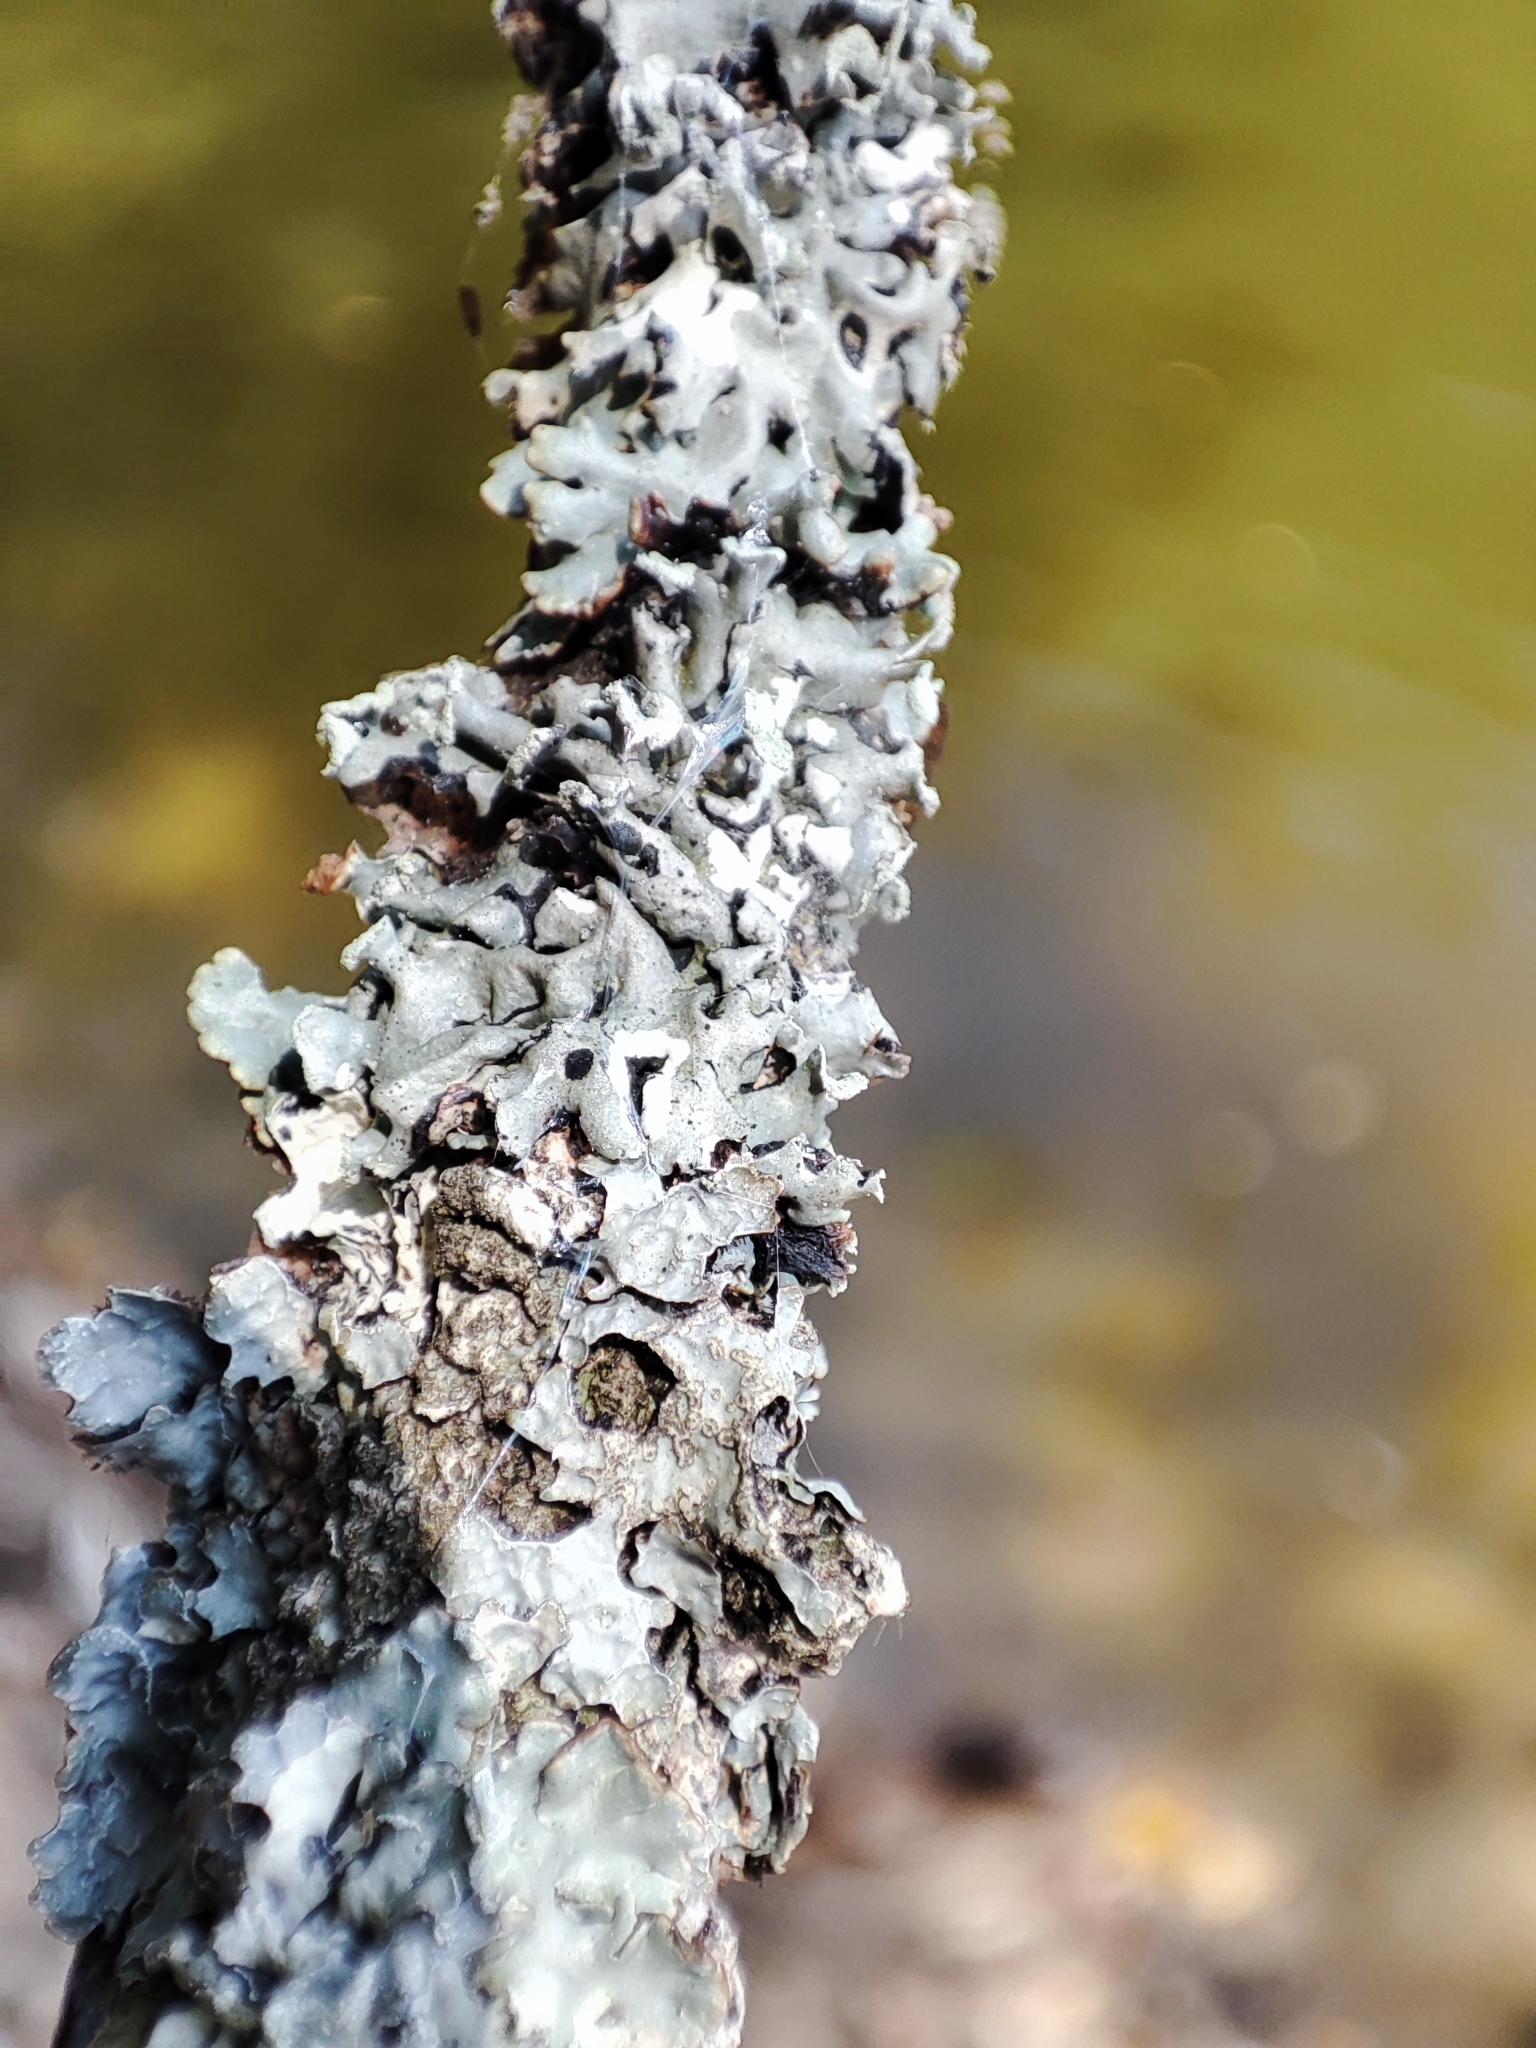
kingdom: Fungi
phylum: Ascomycota
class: Lecanoromycetes
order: Lecanorales
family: Parmeliaceae
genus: Hypogymnia
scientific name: Hypogymnia physodes
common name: Dark crottle
